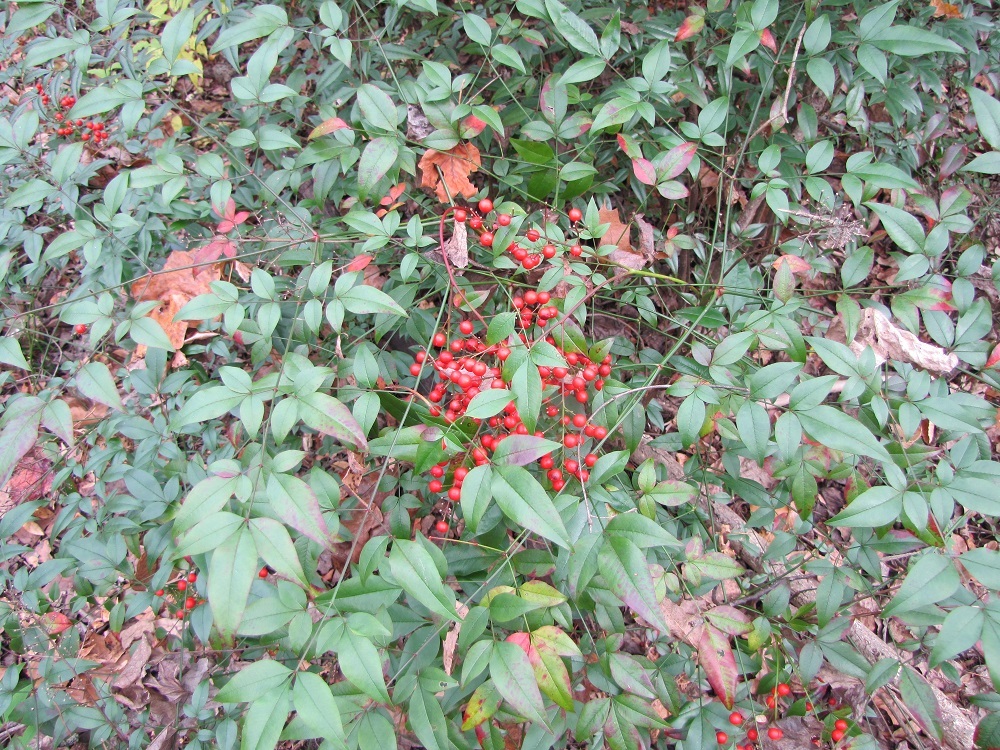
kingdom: Plantae
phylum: Tracheophyta
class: Magnoliopsida
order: Ranunculales
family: Berberidaceae
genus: Nandina
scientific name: Nandina domestica
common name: Sacred bamboo
